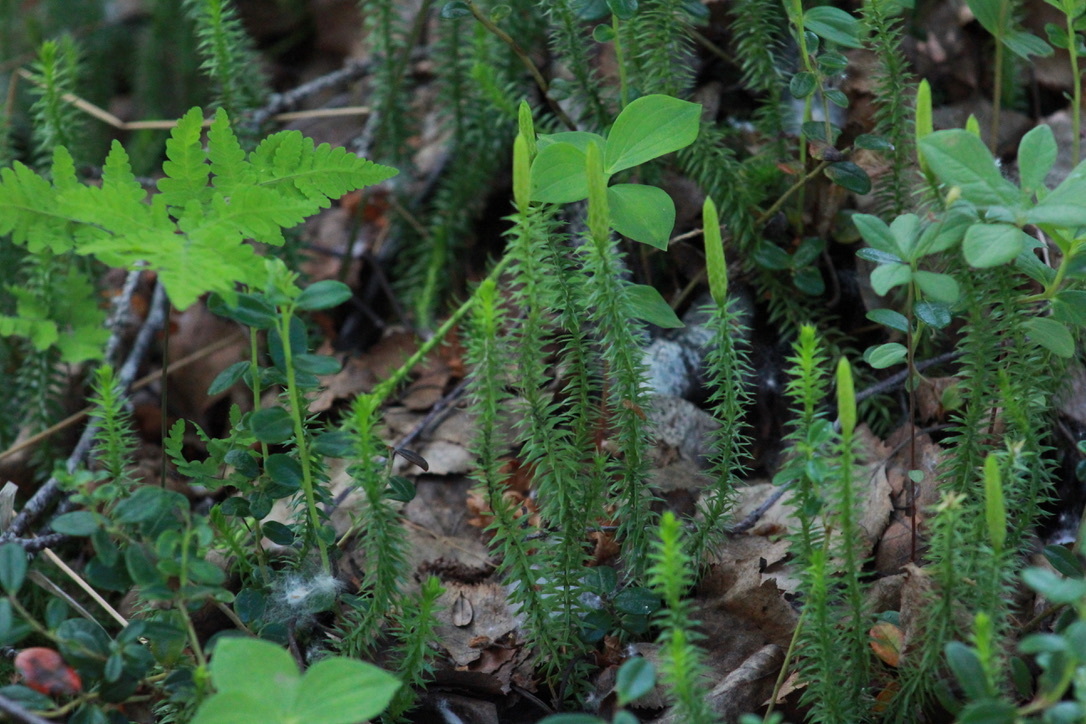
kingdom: Plantae
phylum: Tracheophyta
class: Lycopodiopsida
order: Lycopodiales
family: Lycopodiaceae
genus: Spinulum
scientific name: Spinulum annotinum
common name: Interrupted club-moss
